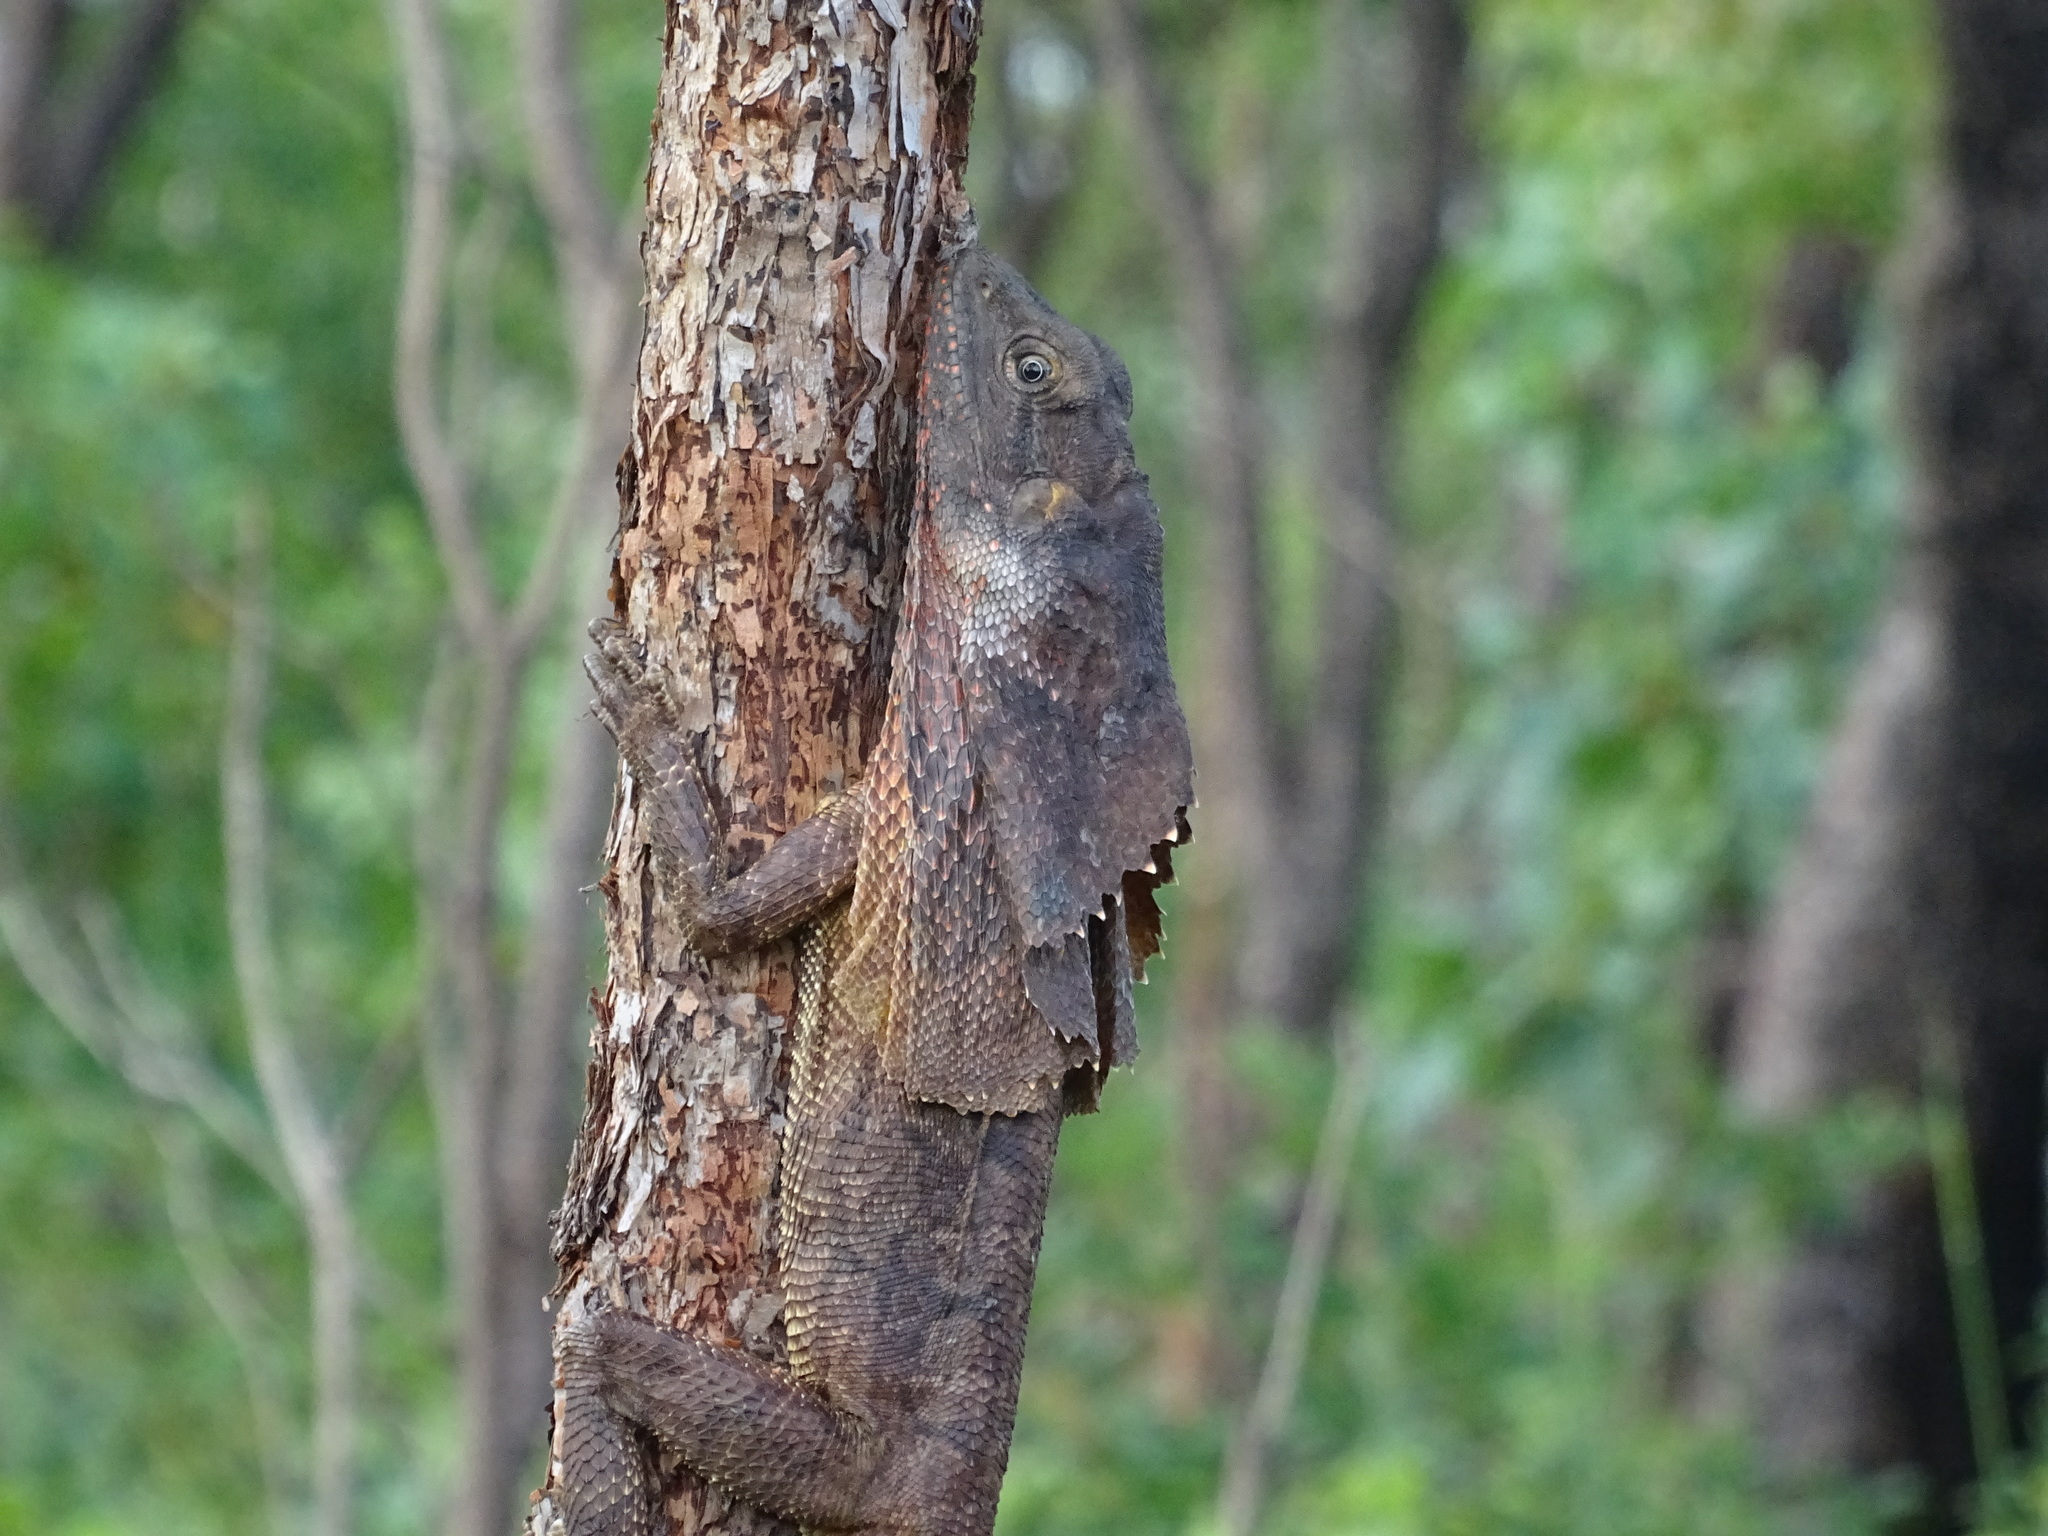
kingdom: Animalia
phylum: Chordata
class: Squamata
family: Agamidae
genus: Chlamydosaurus
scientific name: Chlamydosaurus kingii
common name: Frilled lizard
